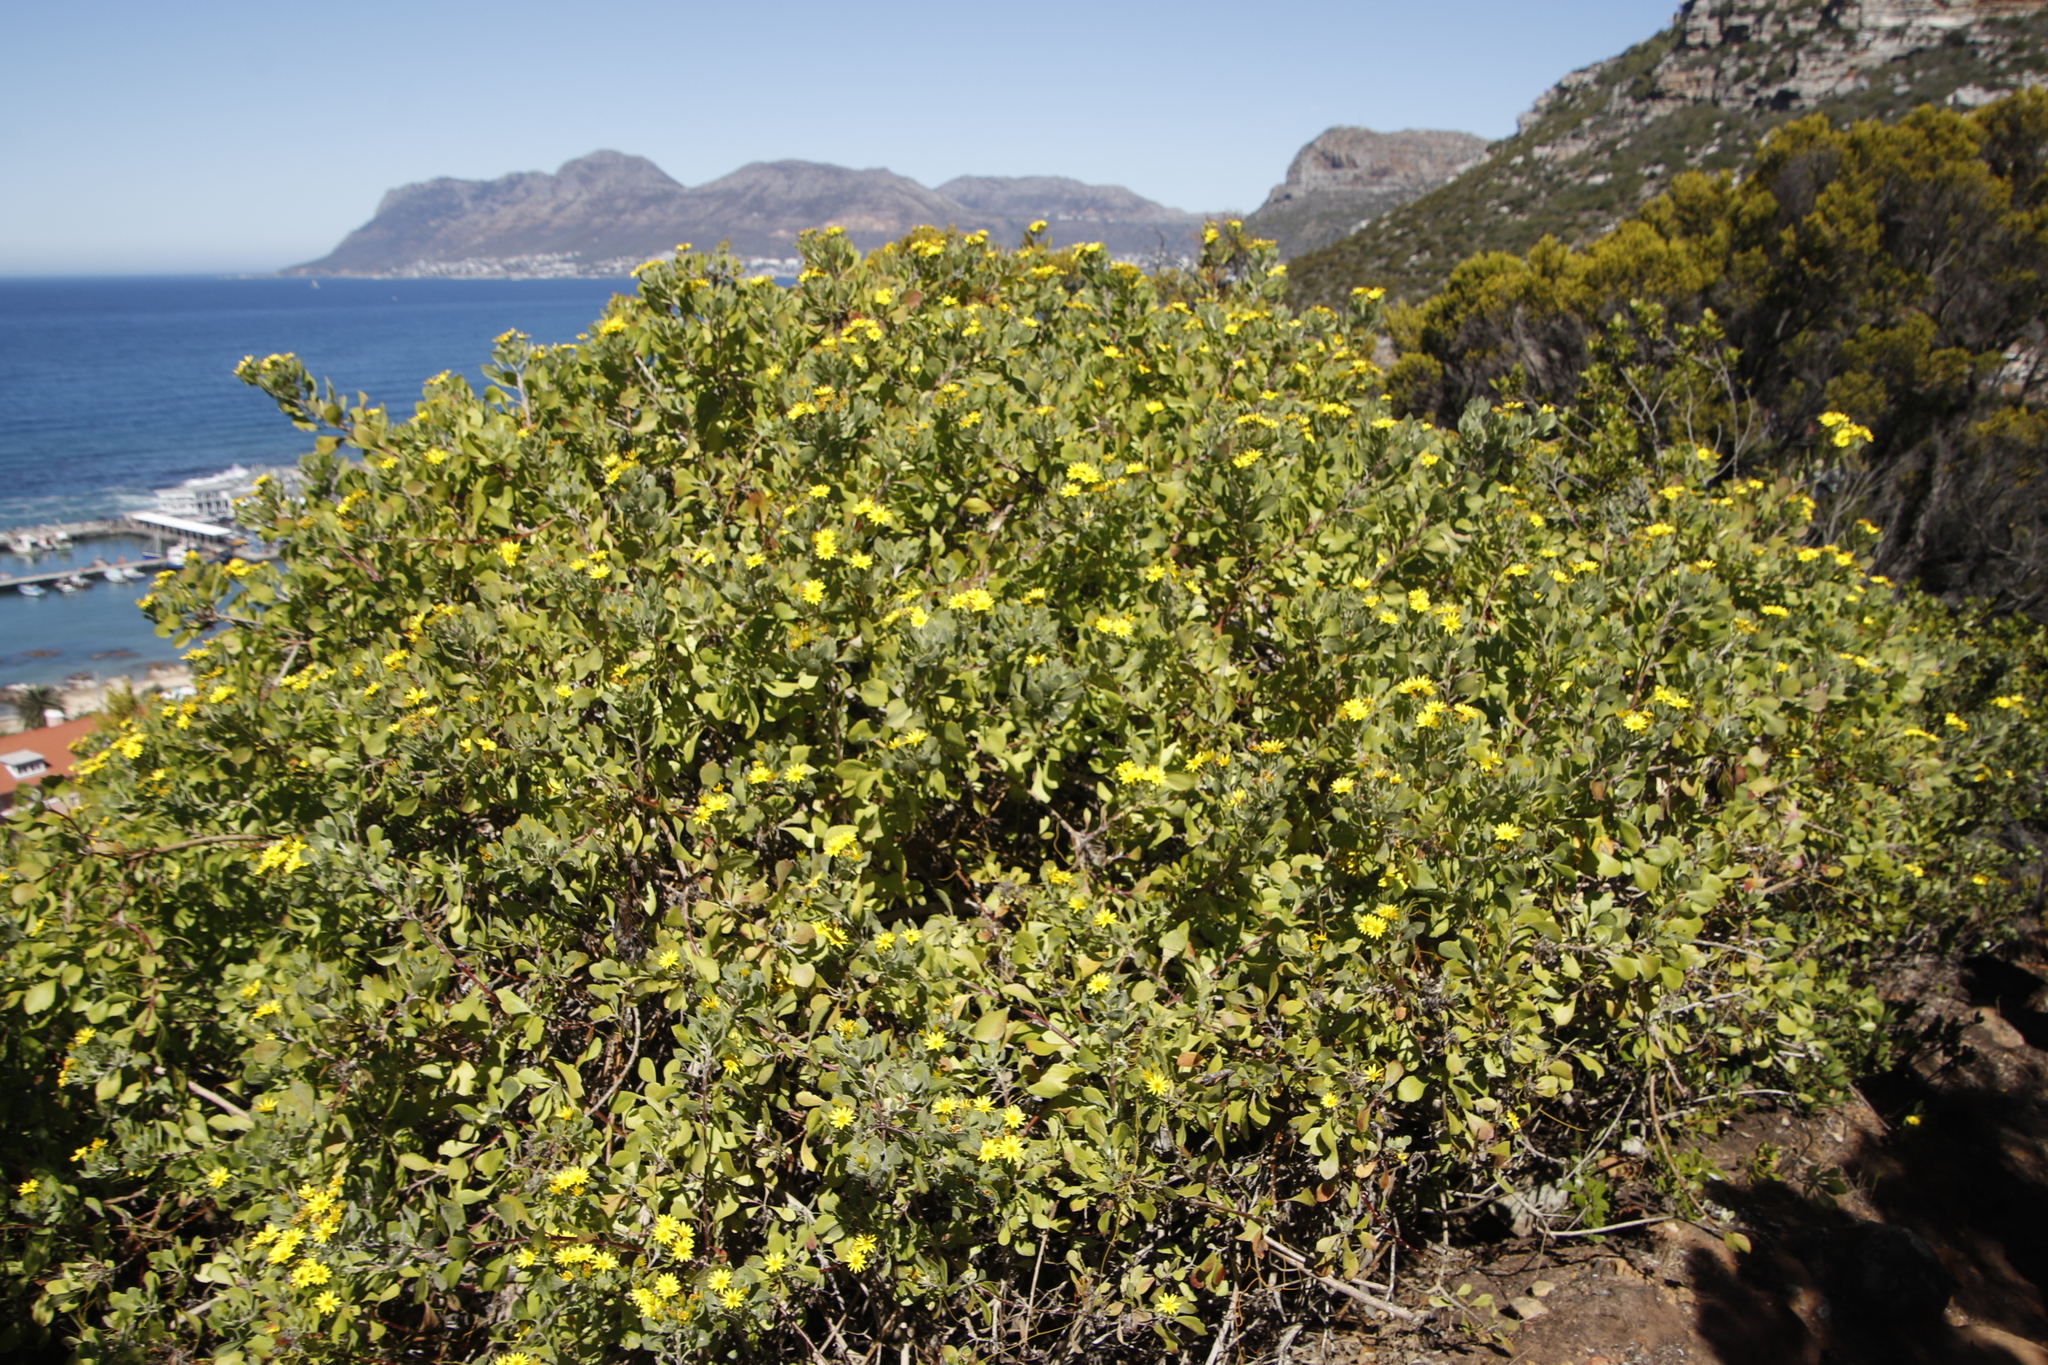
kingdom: Plantae
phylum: Tracheophyta
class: Magnoliopsida
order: Asterales
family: Asteraceae
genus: Osteospermum
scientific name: Osteospermum moniliferum
